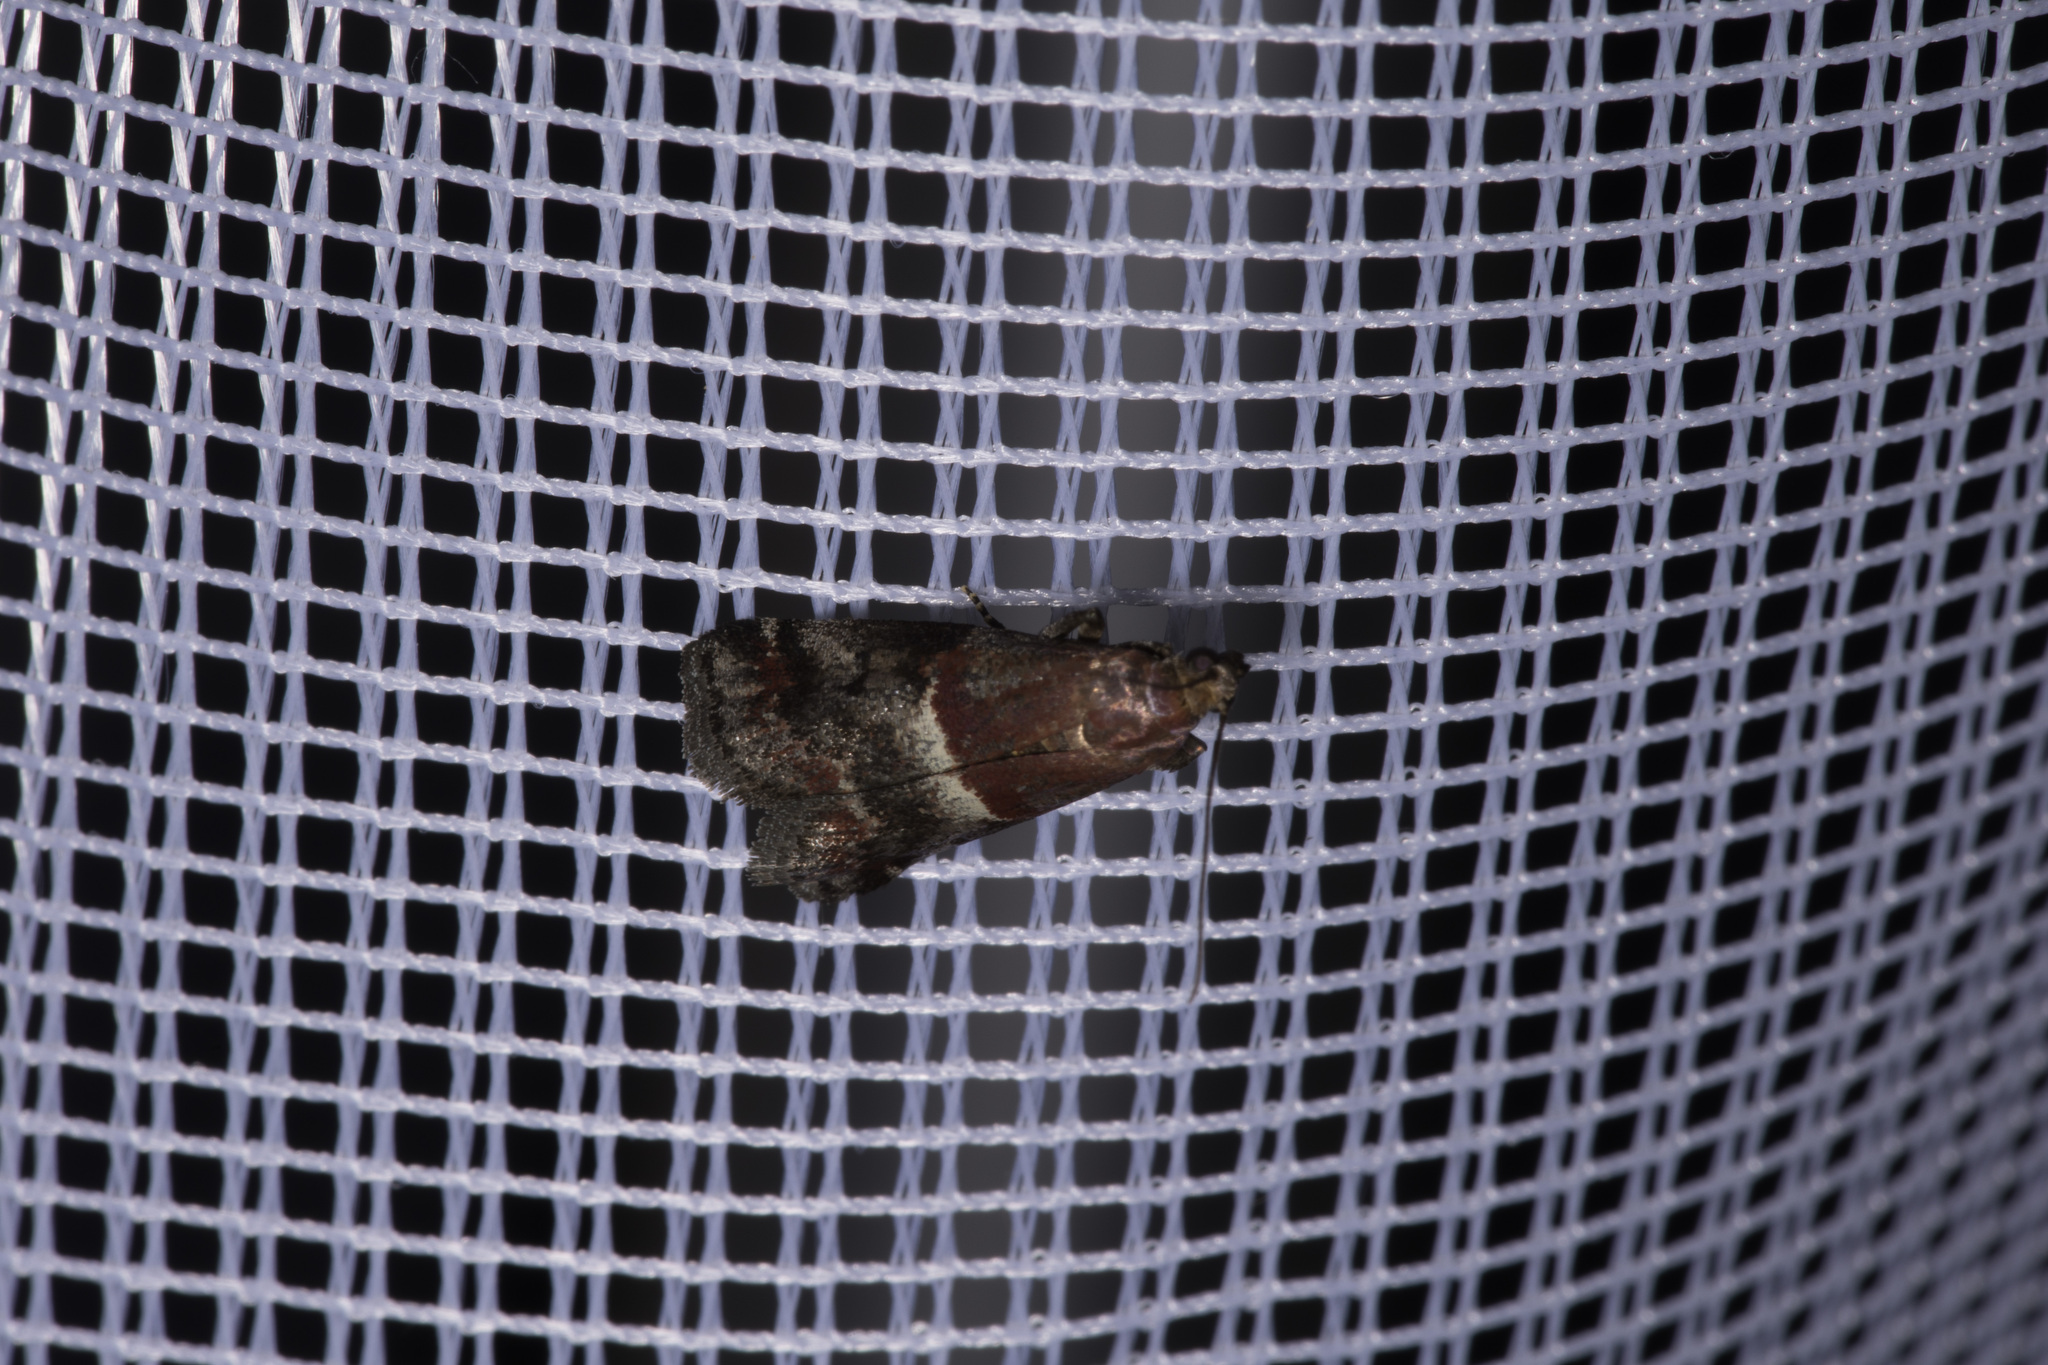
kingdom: Animalia
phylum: Arthropoda
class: Insecta
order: Lepidoptera
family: Pyralidae
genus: Acrobasis
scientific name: Acrobasis marmorea
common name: Marbled knot-horn
